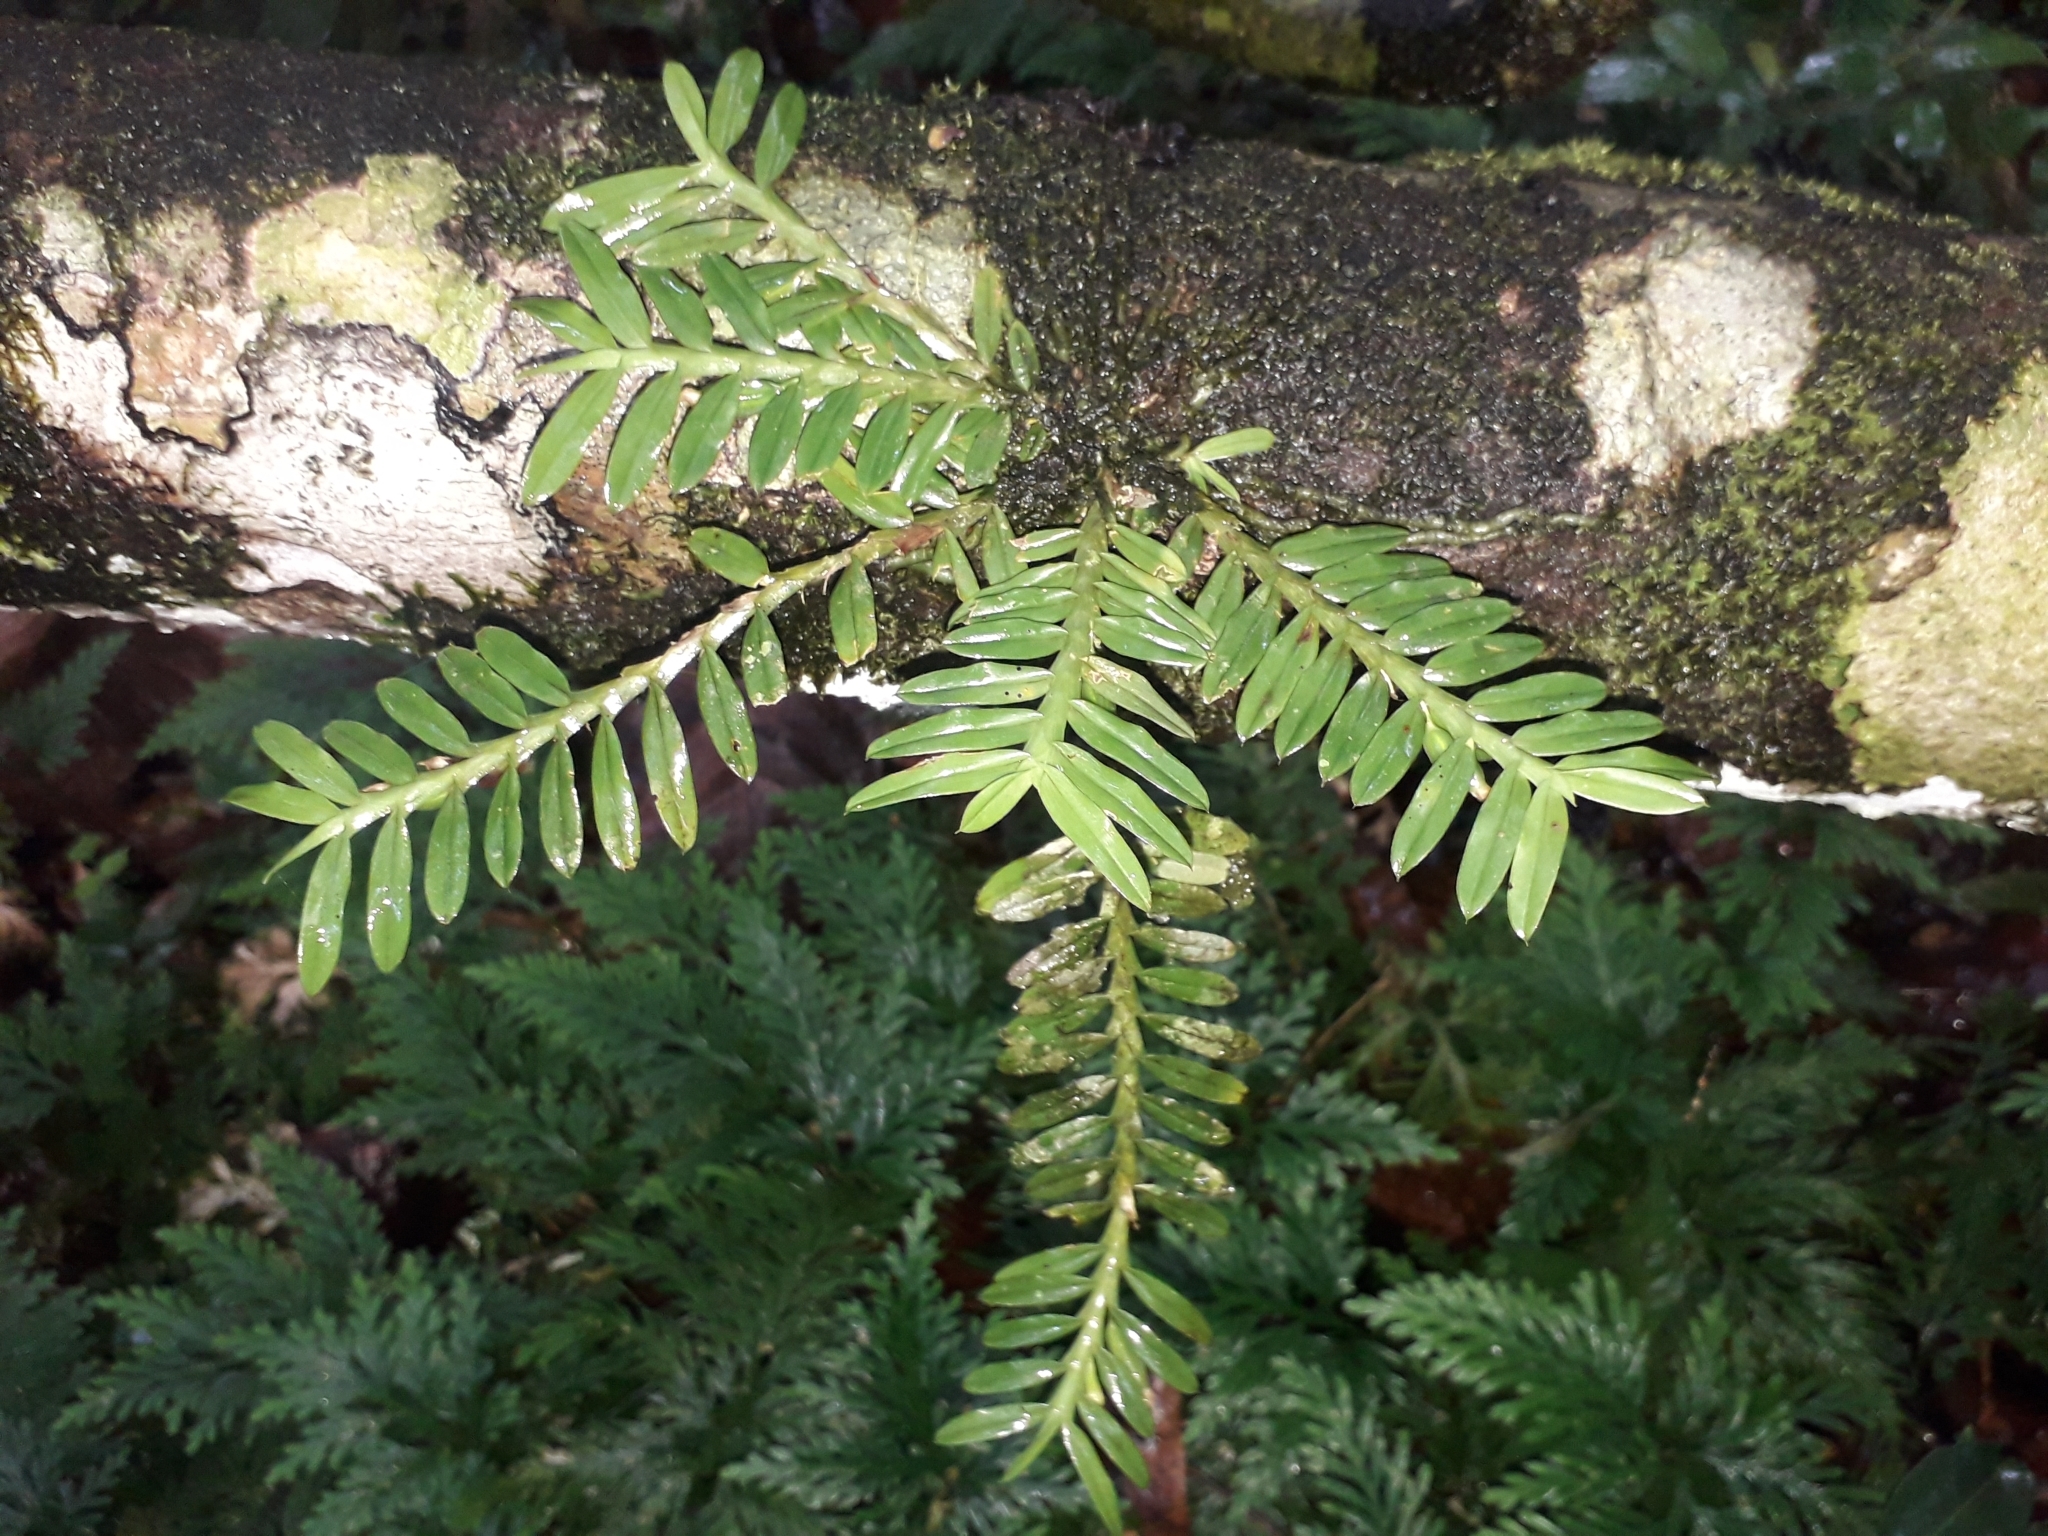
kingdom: Plantae
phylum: Tracheophyta
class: Liliopsida
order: Asparagales
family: Orchidaceae
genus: Dichaea
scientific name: Dichaea trinitensis
